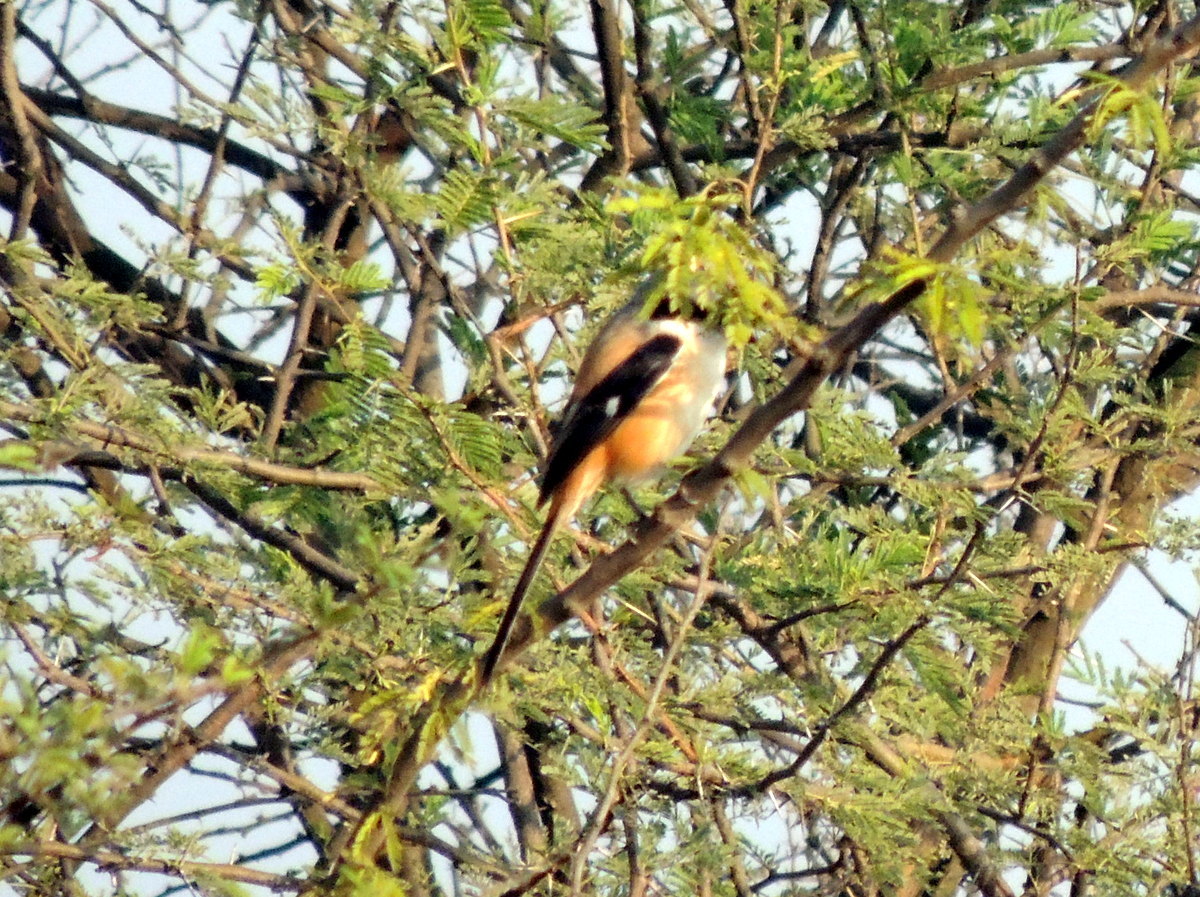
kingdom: Animalia
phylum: Chordata
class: Aves
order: Passeriformes
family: Laniidae
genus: Lanius
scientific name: Lanius schach
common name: Long-tailed shrike
